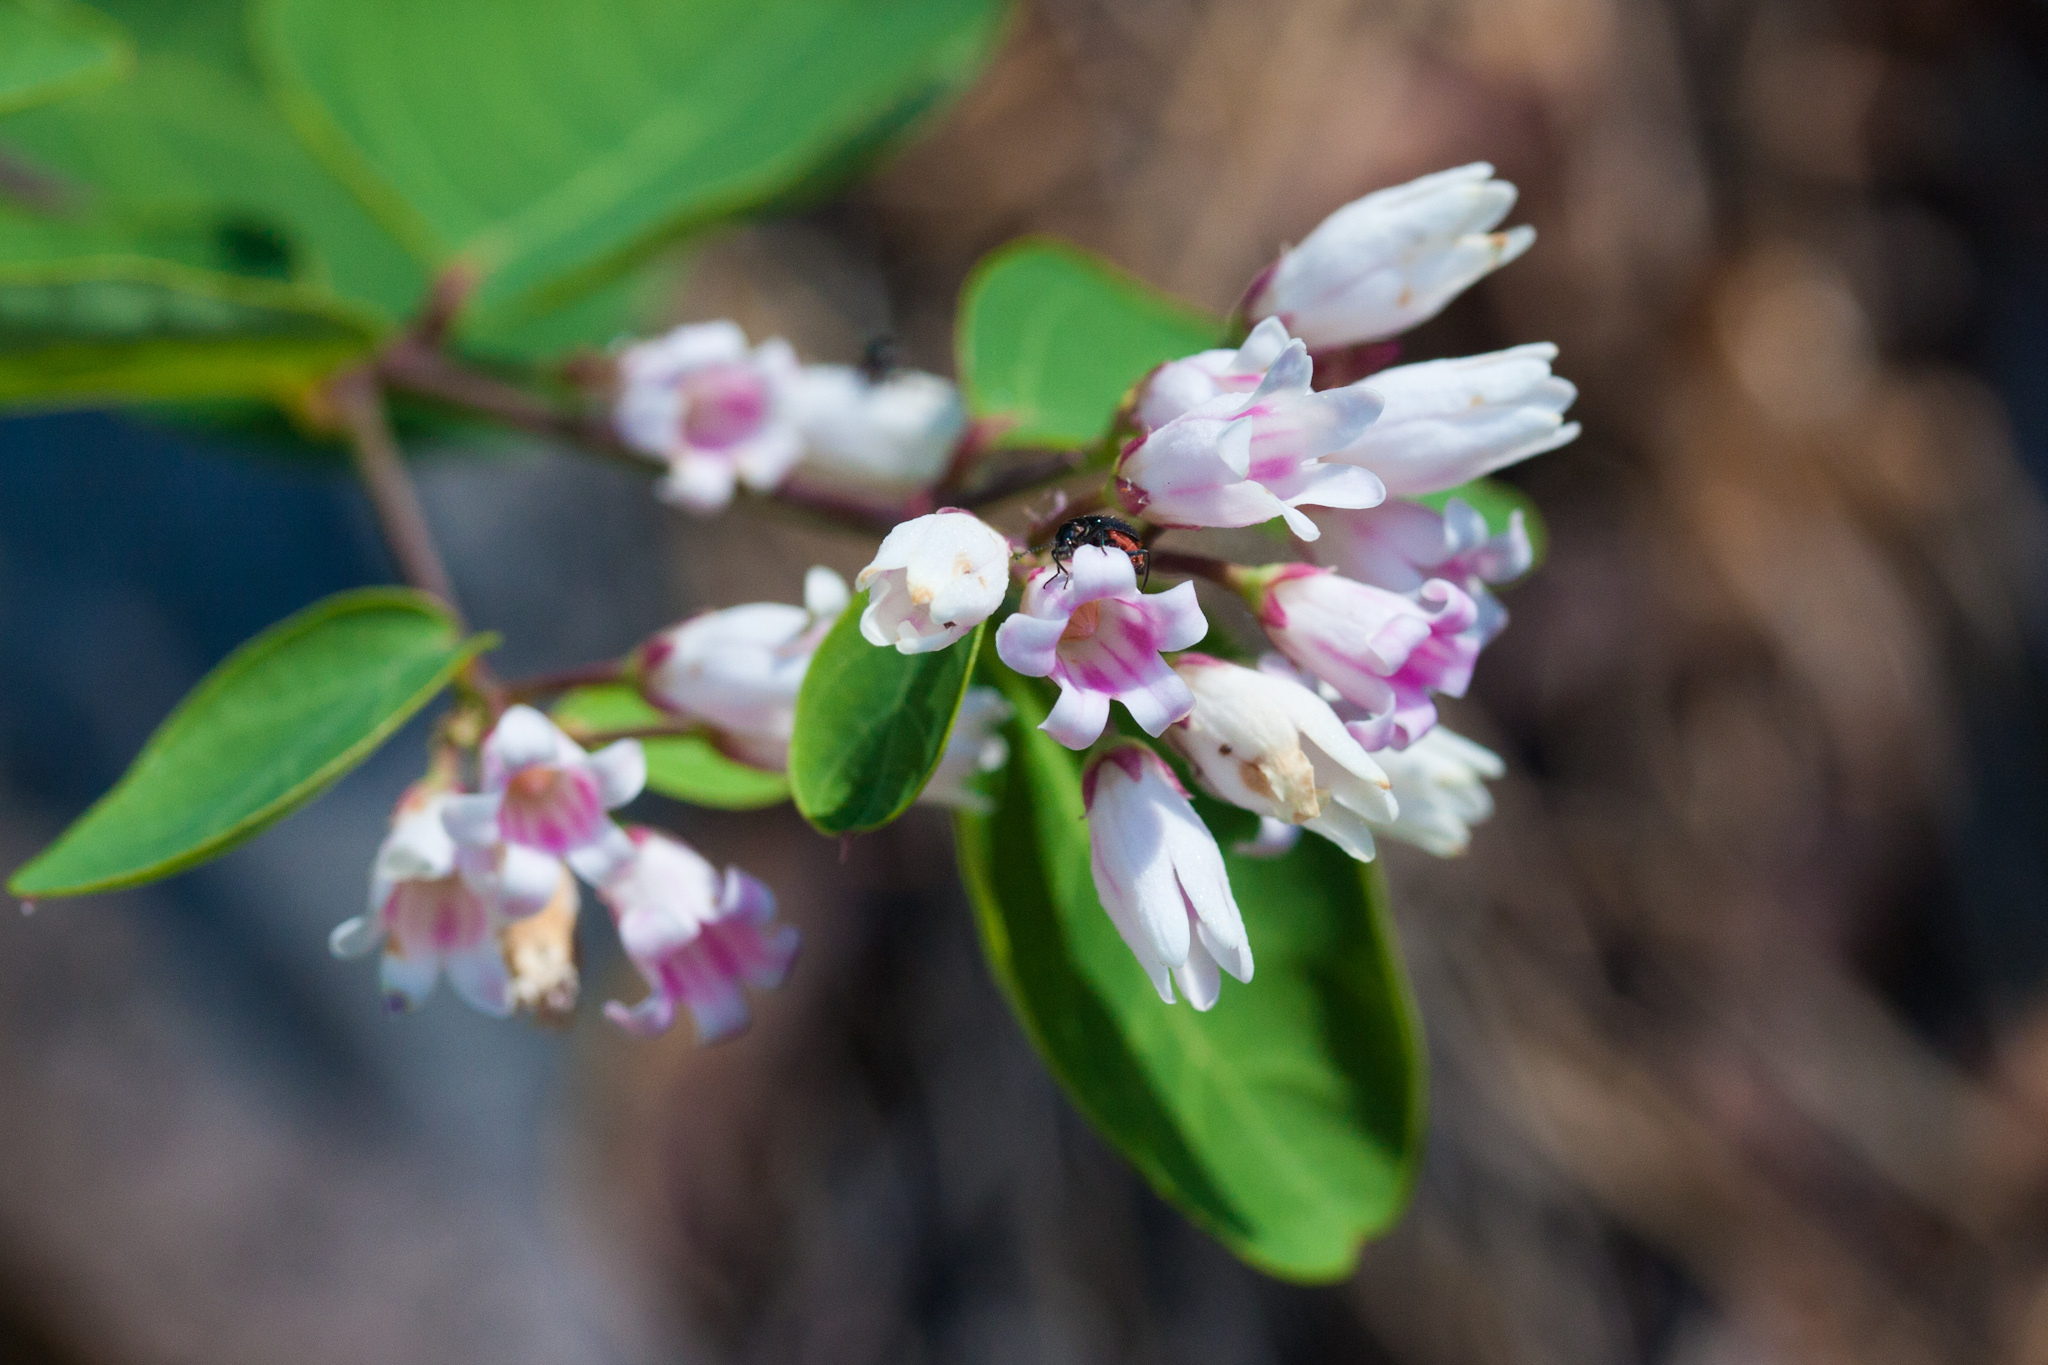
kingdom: Plantae
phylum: Tracheophyta
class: Magnoliopsida
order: Gentianales
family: Apocynaceae
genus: Apocynum
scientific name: Apocynum androsaemifolium
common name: Spreading dogbane
